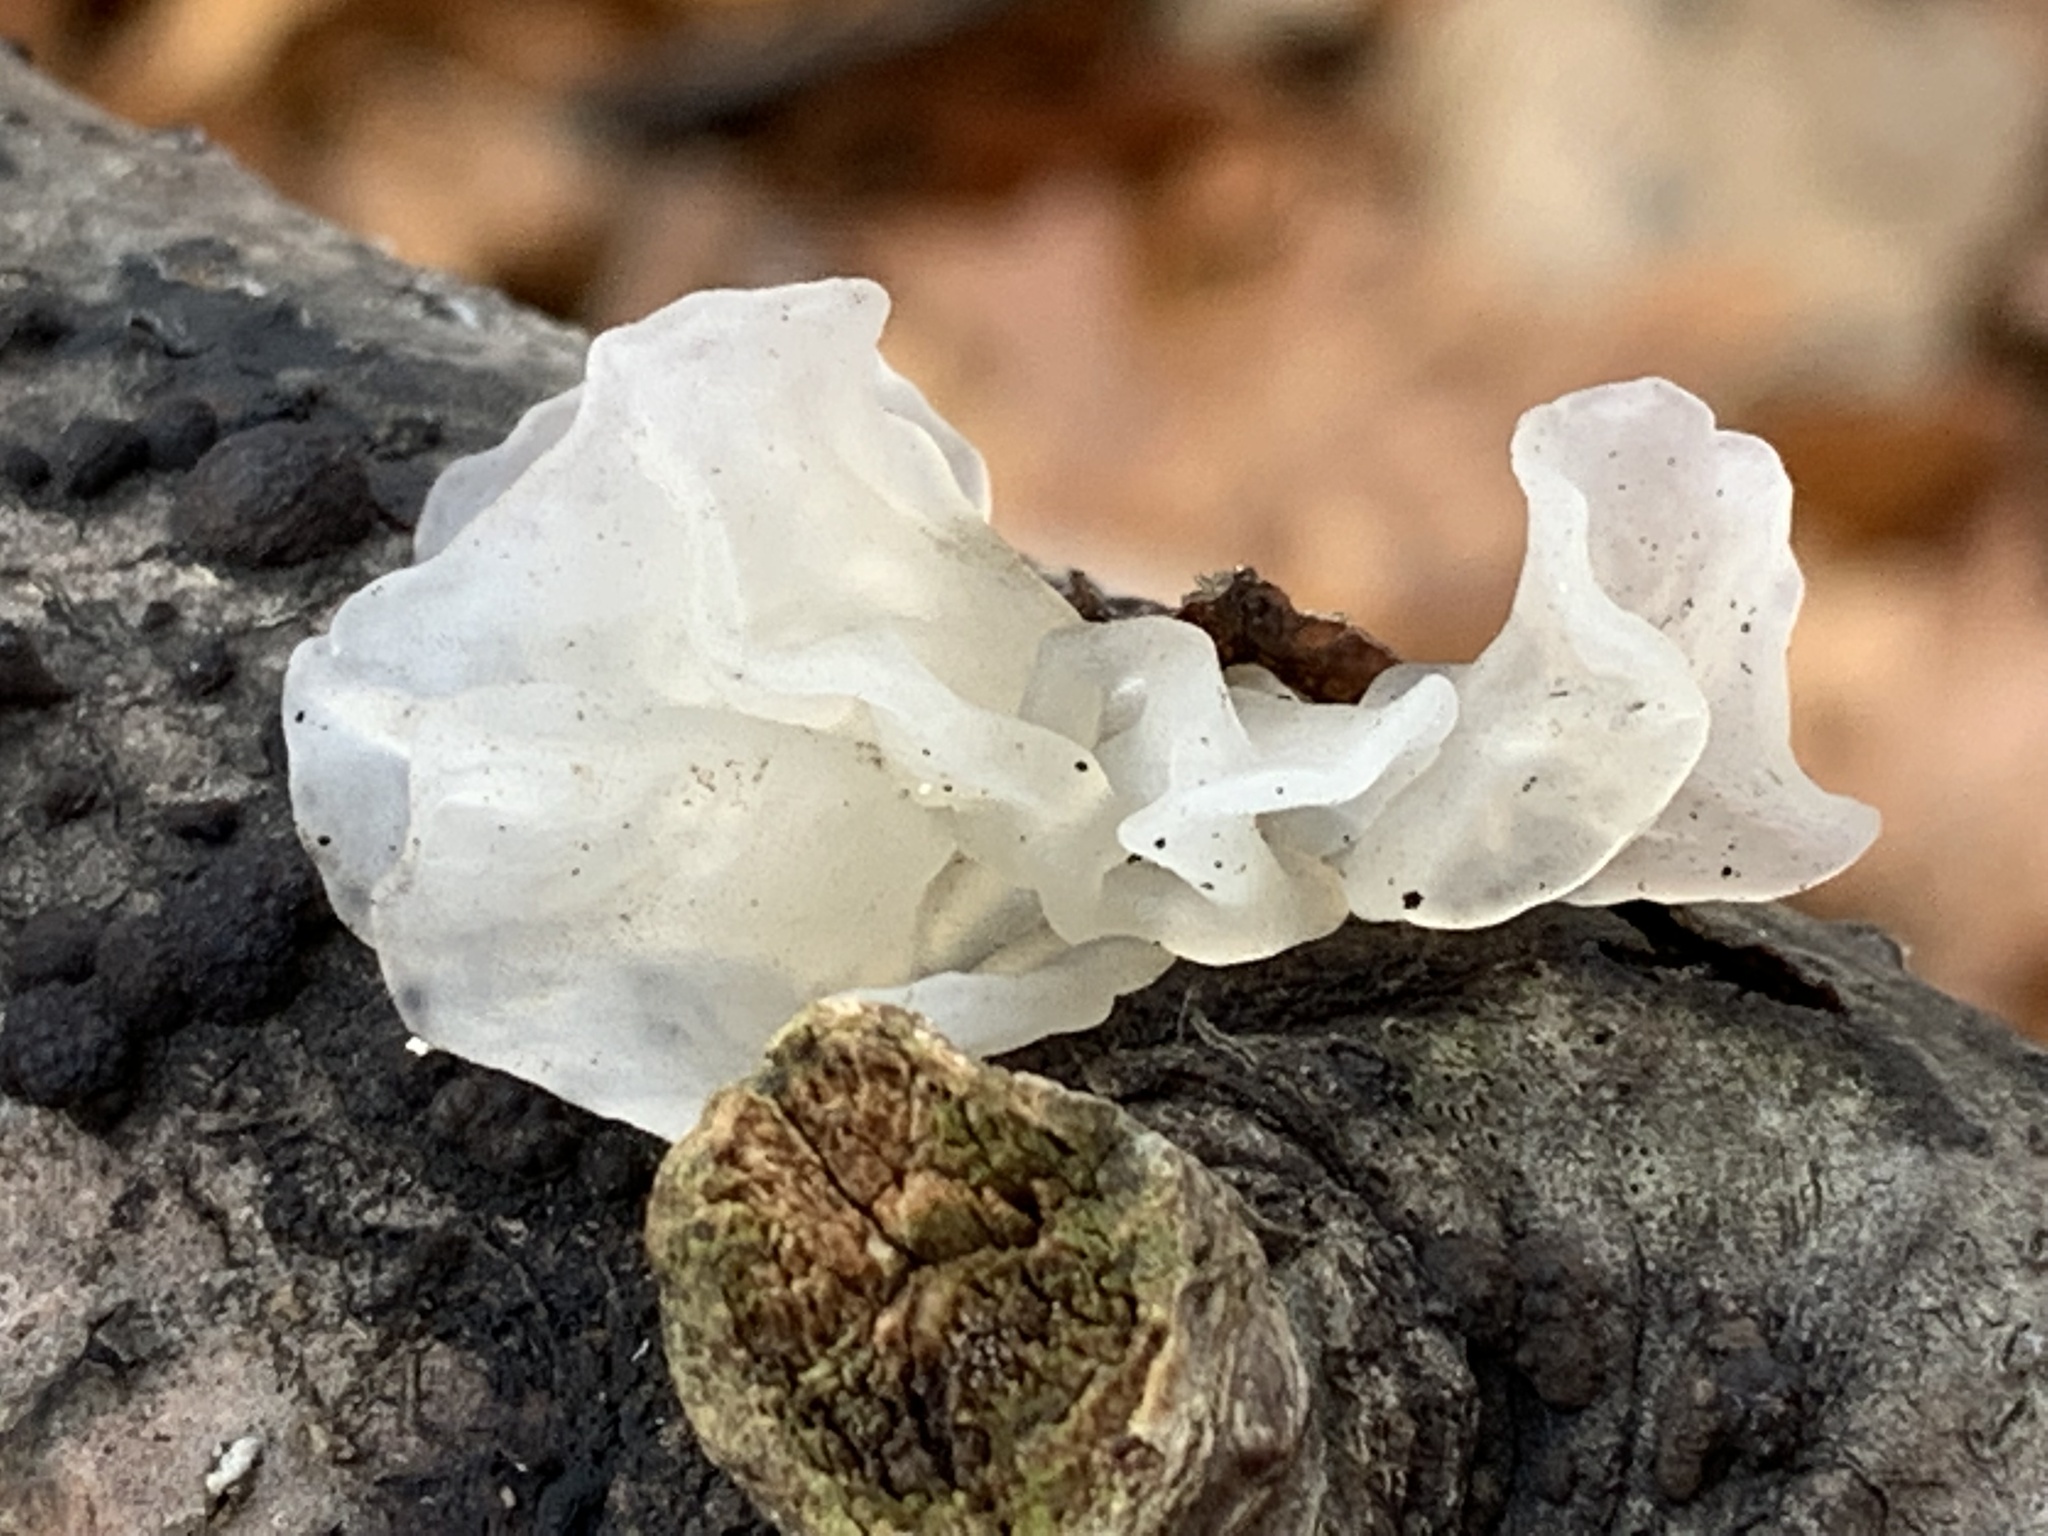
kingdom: Fungi
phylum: Basidiomycota
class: Tremellomycetes
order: Tremellales
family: Tremellaceae
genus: Tremella
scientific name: Tremella fuciformis
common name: Snow fungus
